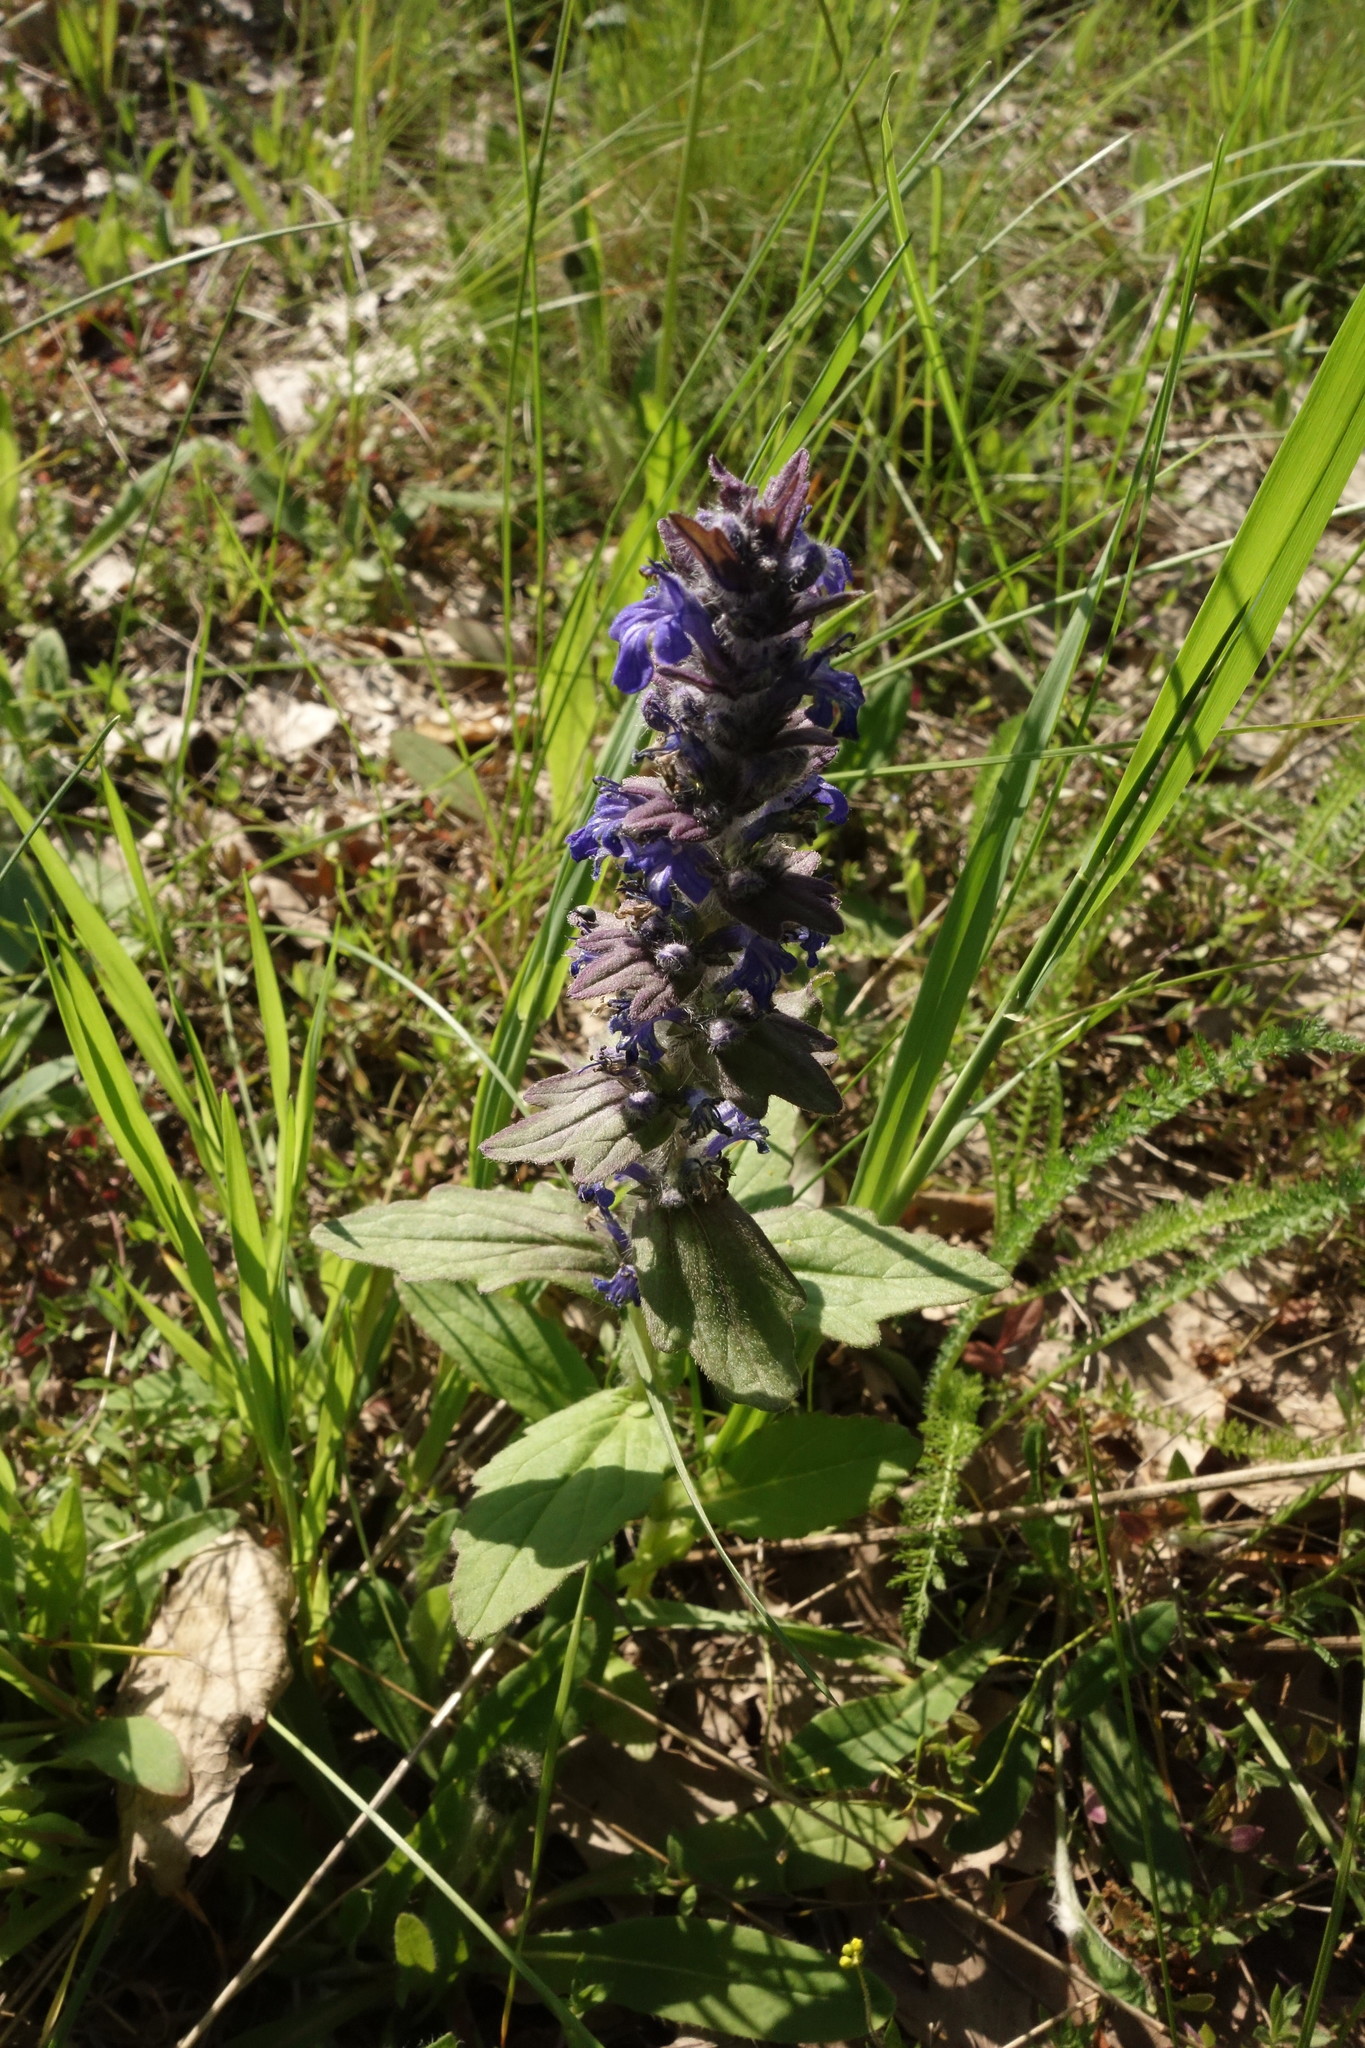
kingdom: Plantae
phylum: Tracheophyta
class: Magnoliopsida
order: Lamiales
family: Lamiaceae
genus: Ajuga
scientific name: Ajuga genevensis
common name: Blue bugle
